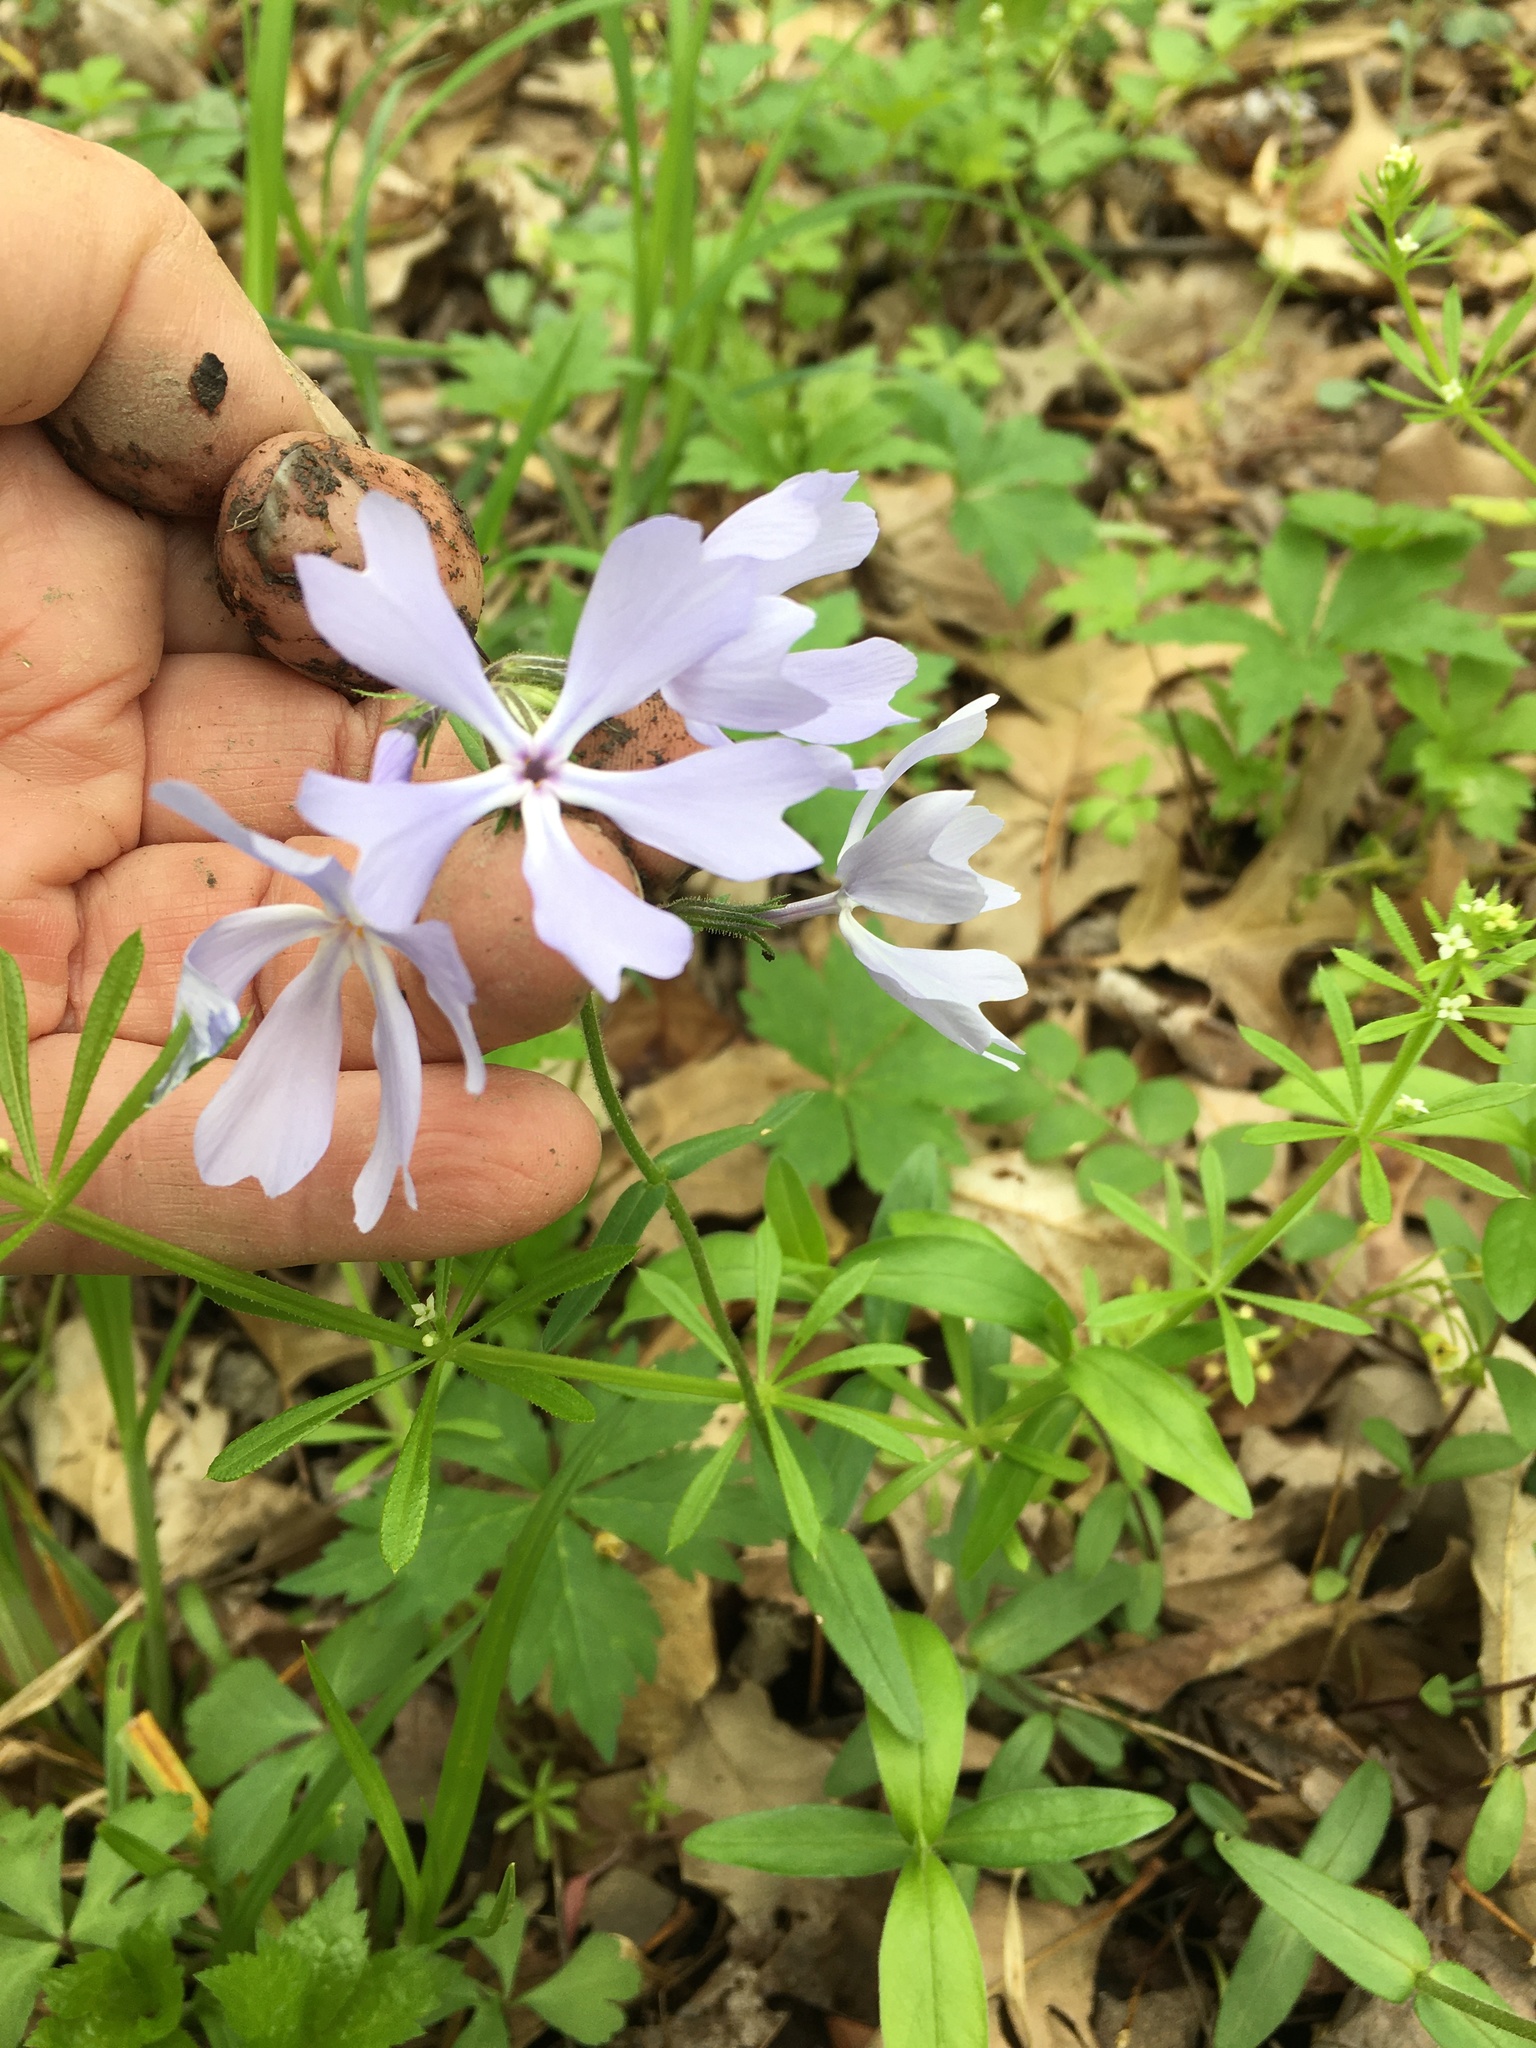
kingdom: Plantae
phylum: Tracheophyta
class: Magnoliopsida
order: Ericales
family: Polemoniaceae
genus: Phlox
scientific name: Phlox divaricata
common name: Blue phlox
